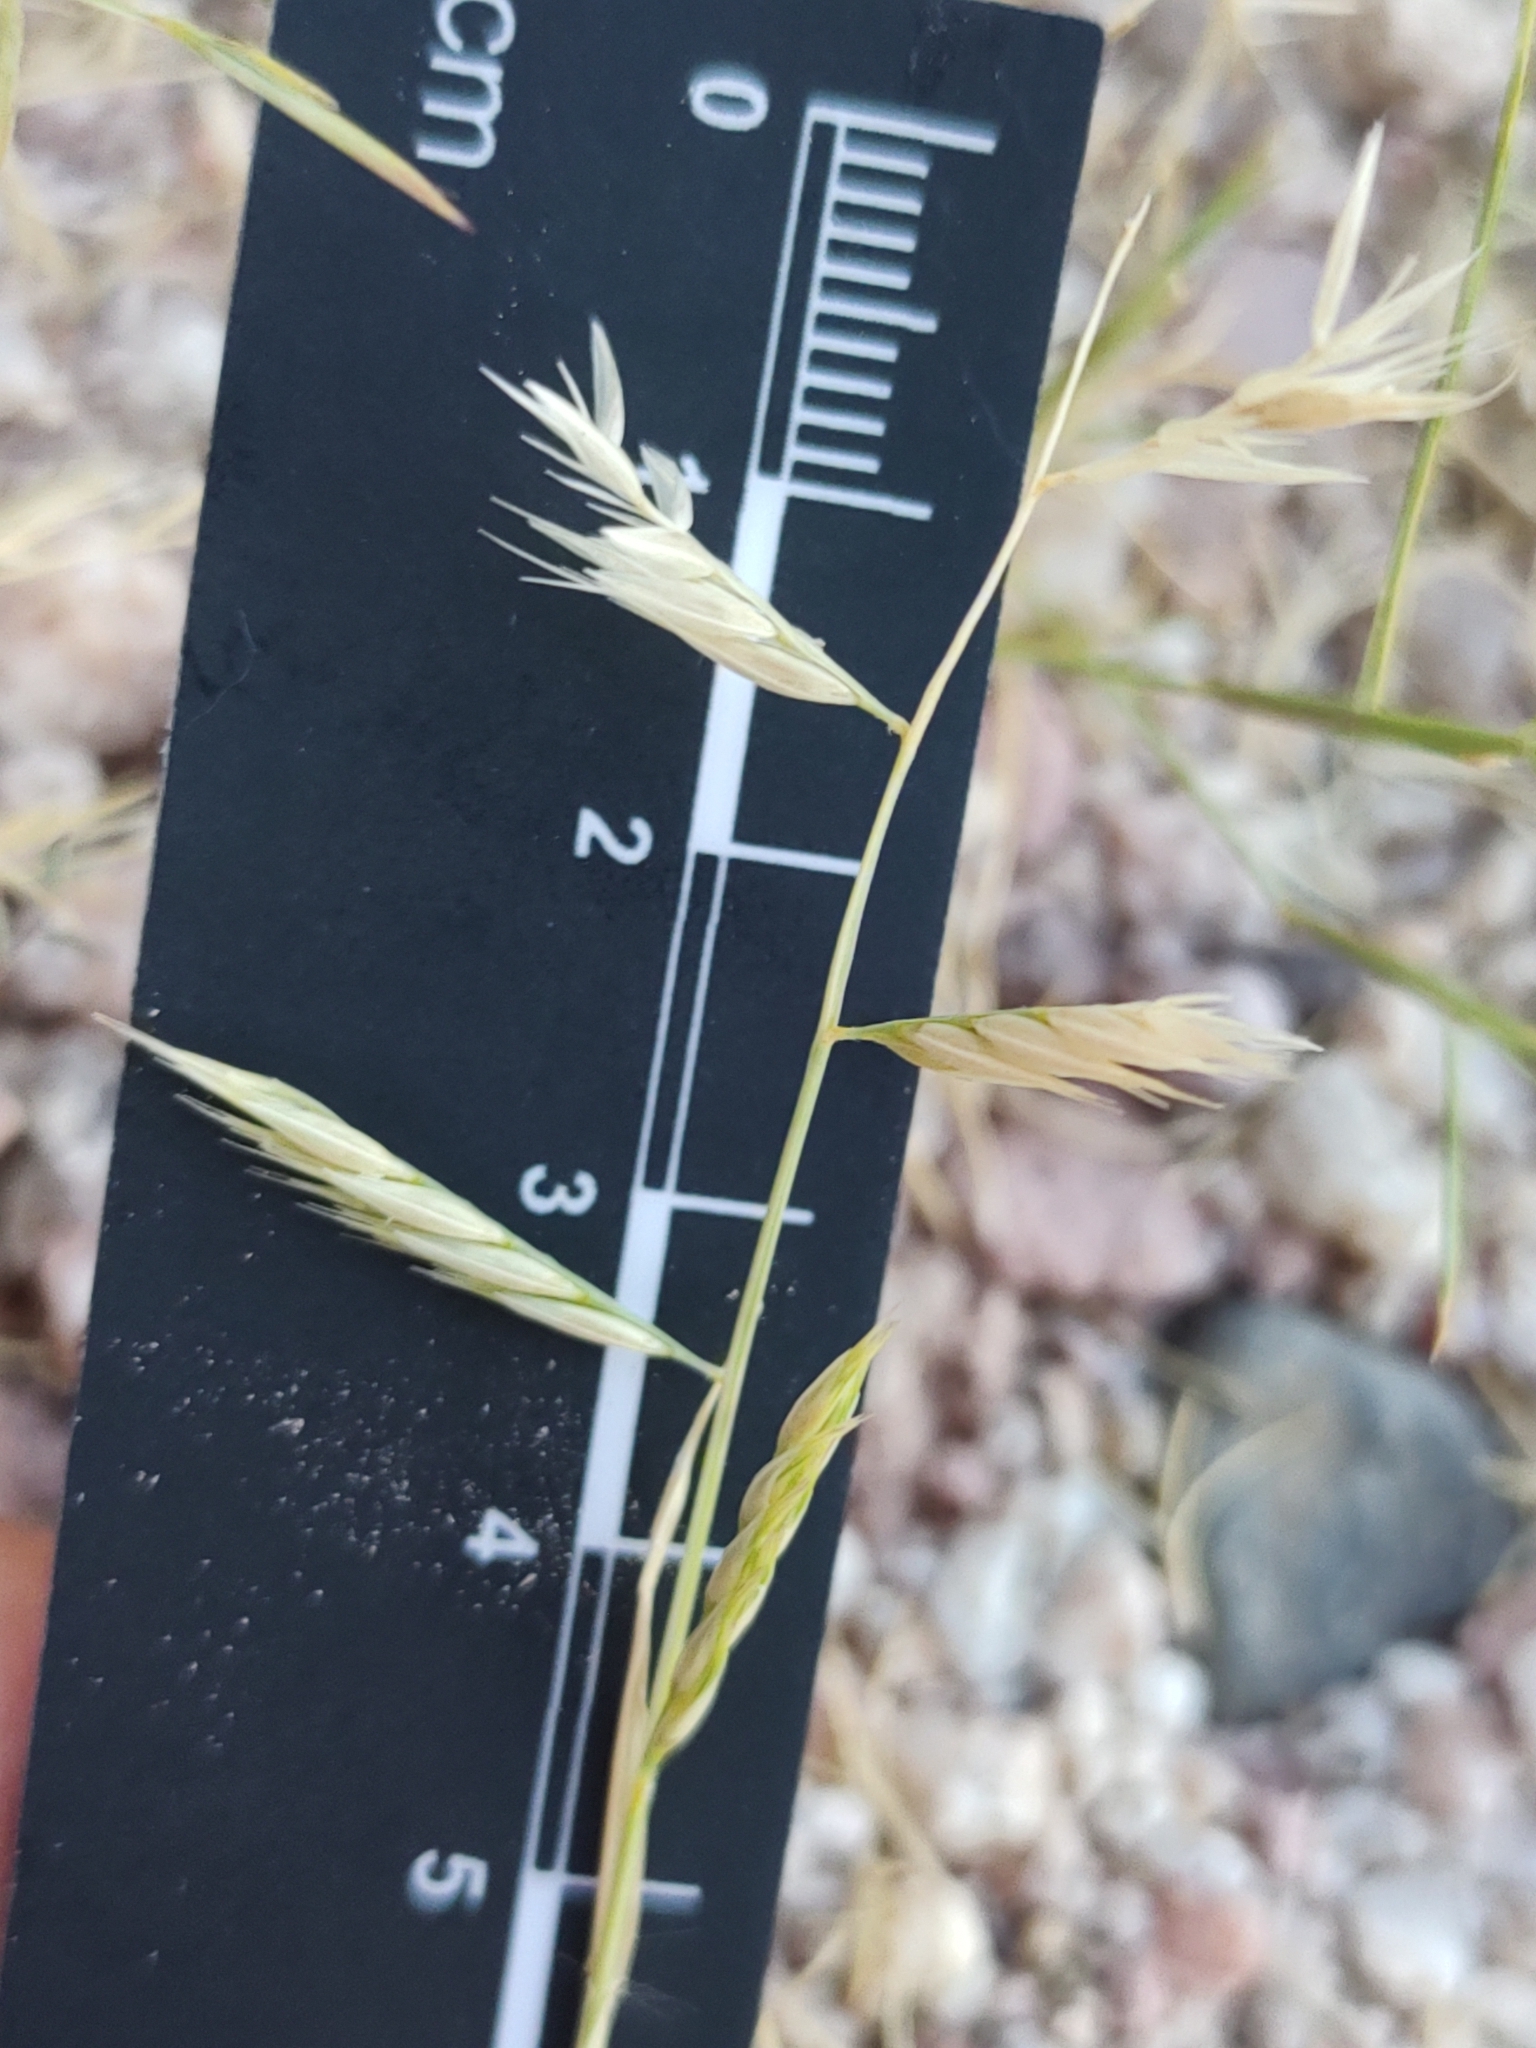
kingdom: Plantae
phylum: Tracheophyta
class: Liliopsida
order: Poales
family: Poaceae
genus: Bouteloua
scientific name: Bouteloua annua
